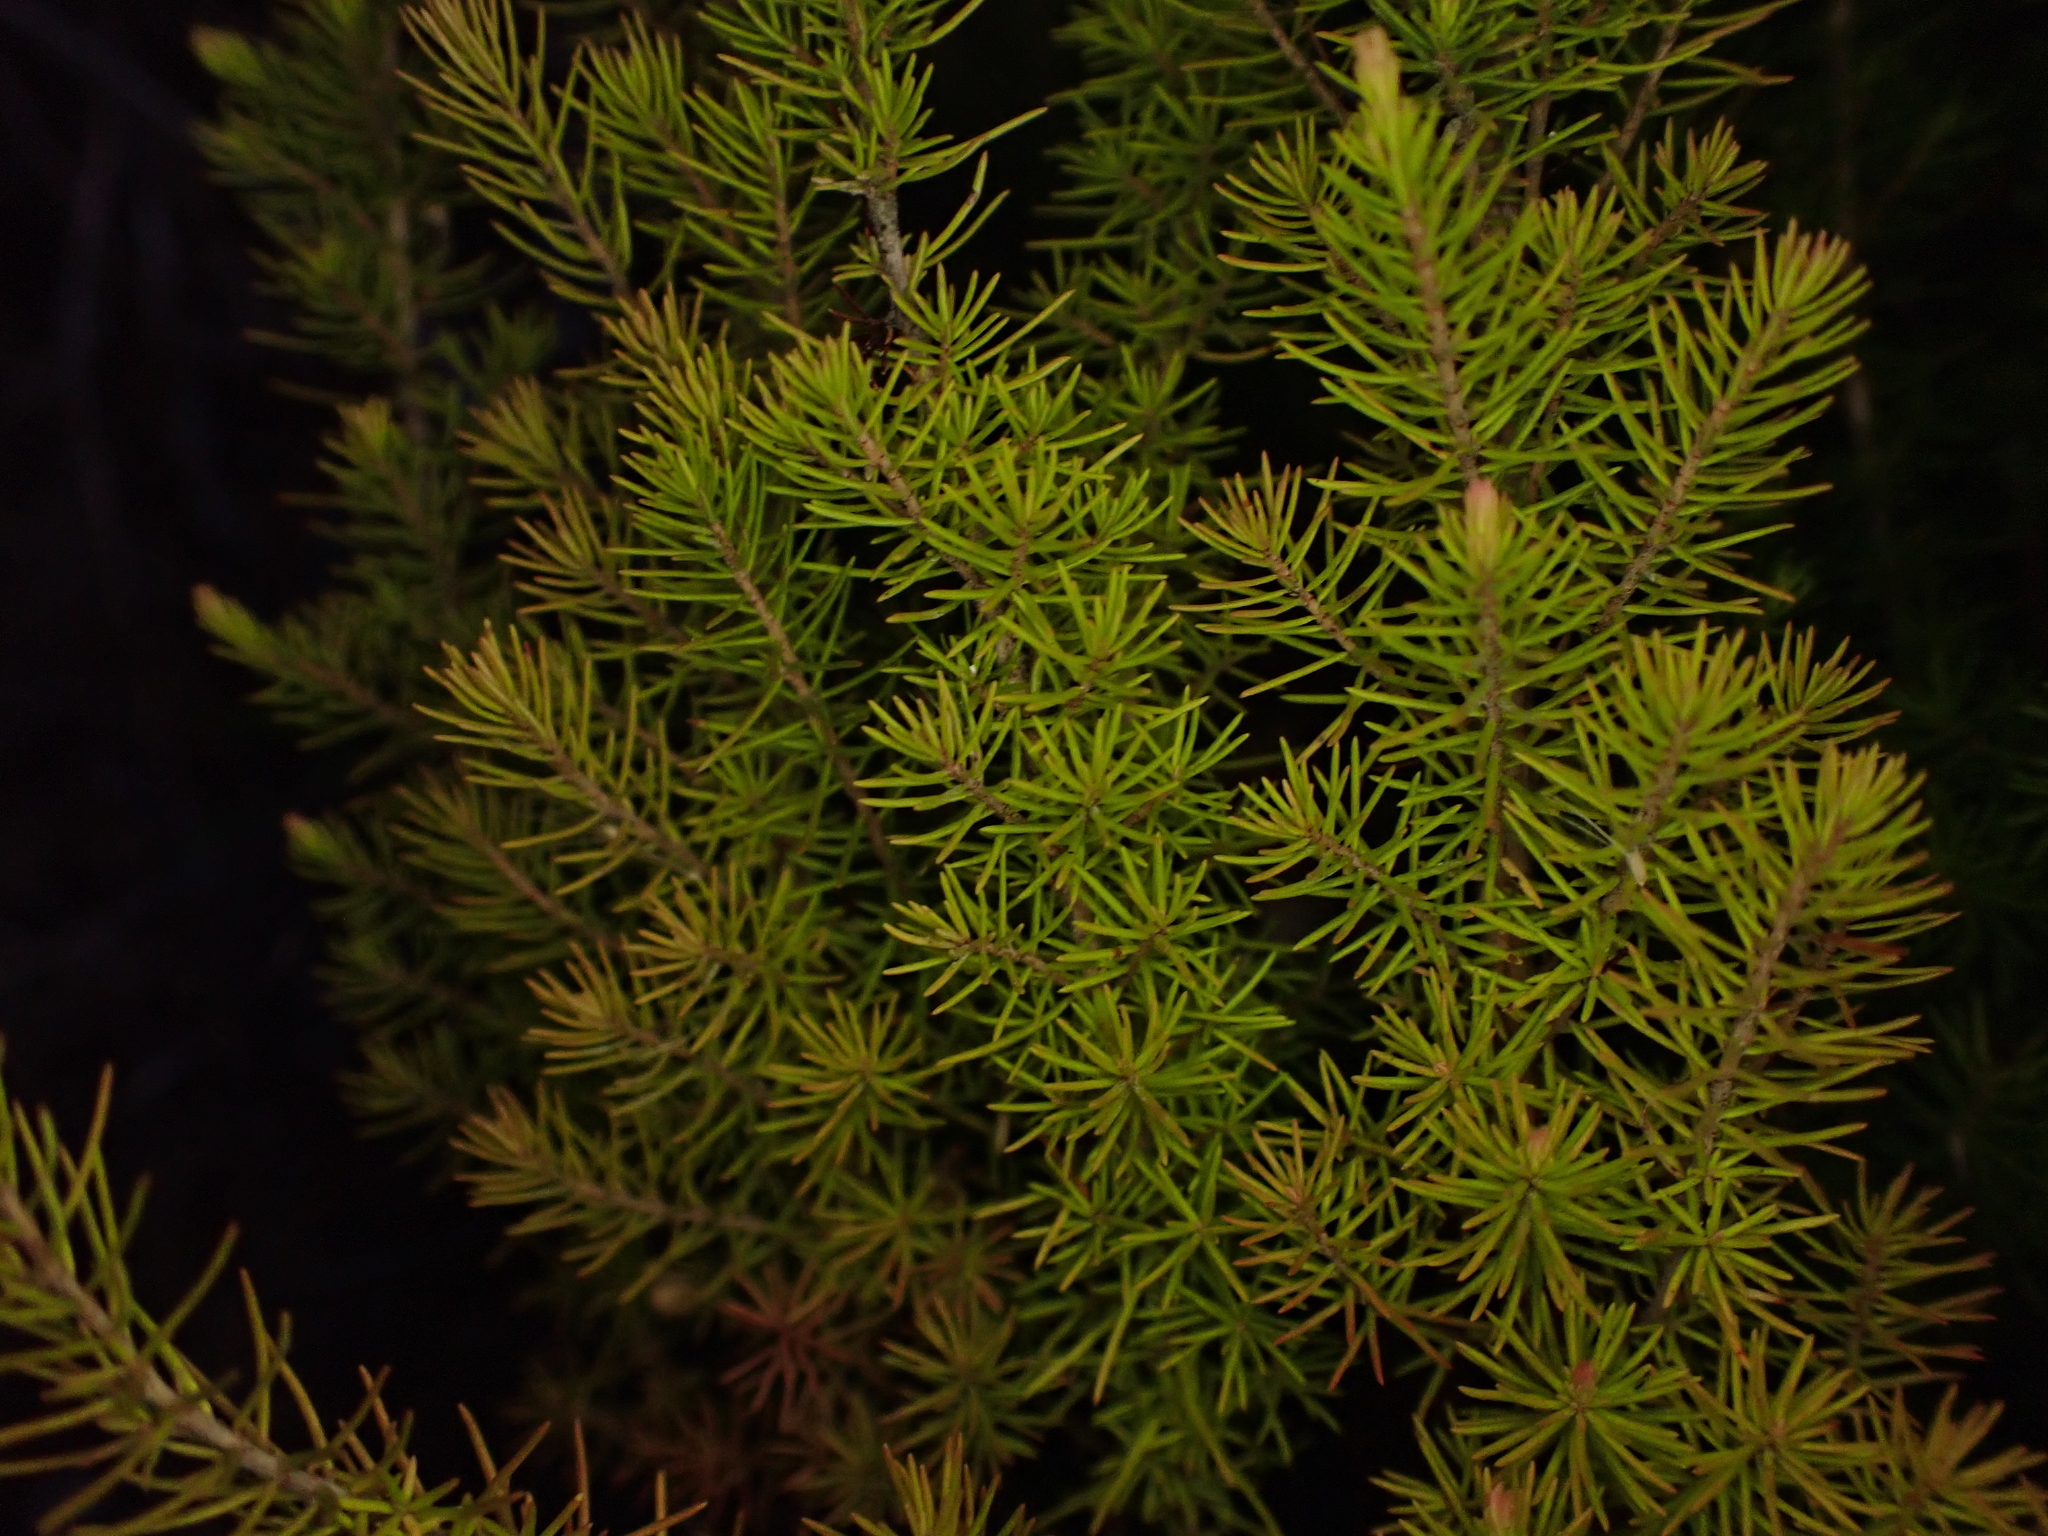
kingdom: Plantae
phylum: Tracheophyta
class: Magnoliopsida
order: Ericales
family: Ericaceae
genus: Leptecophylla
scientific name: Leptecophylla juniperina
